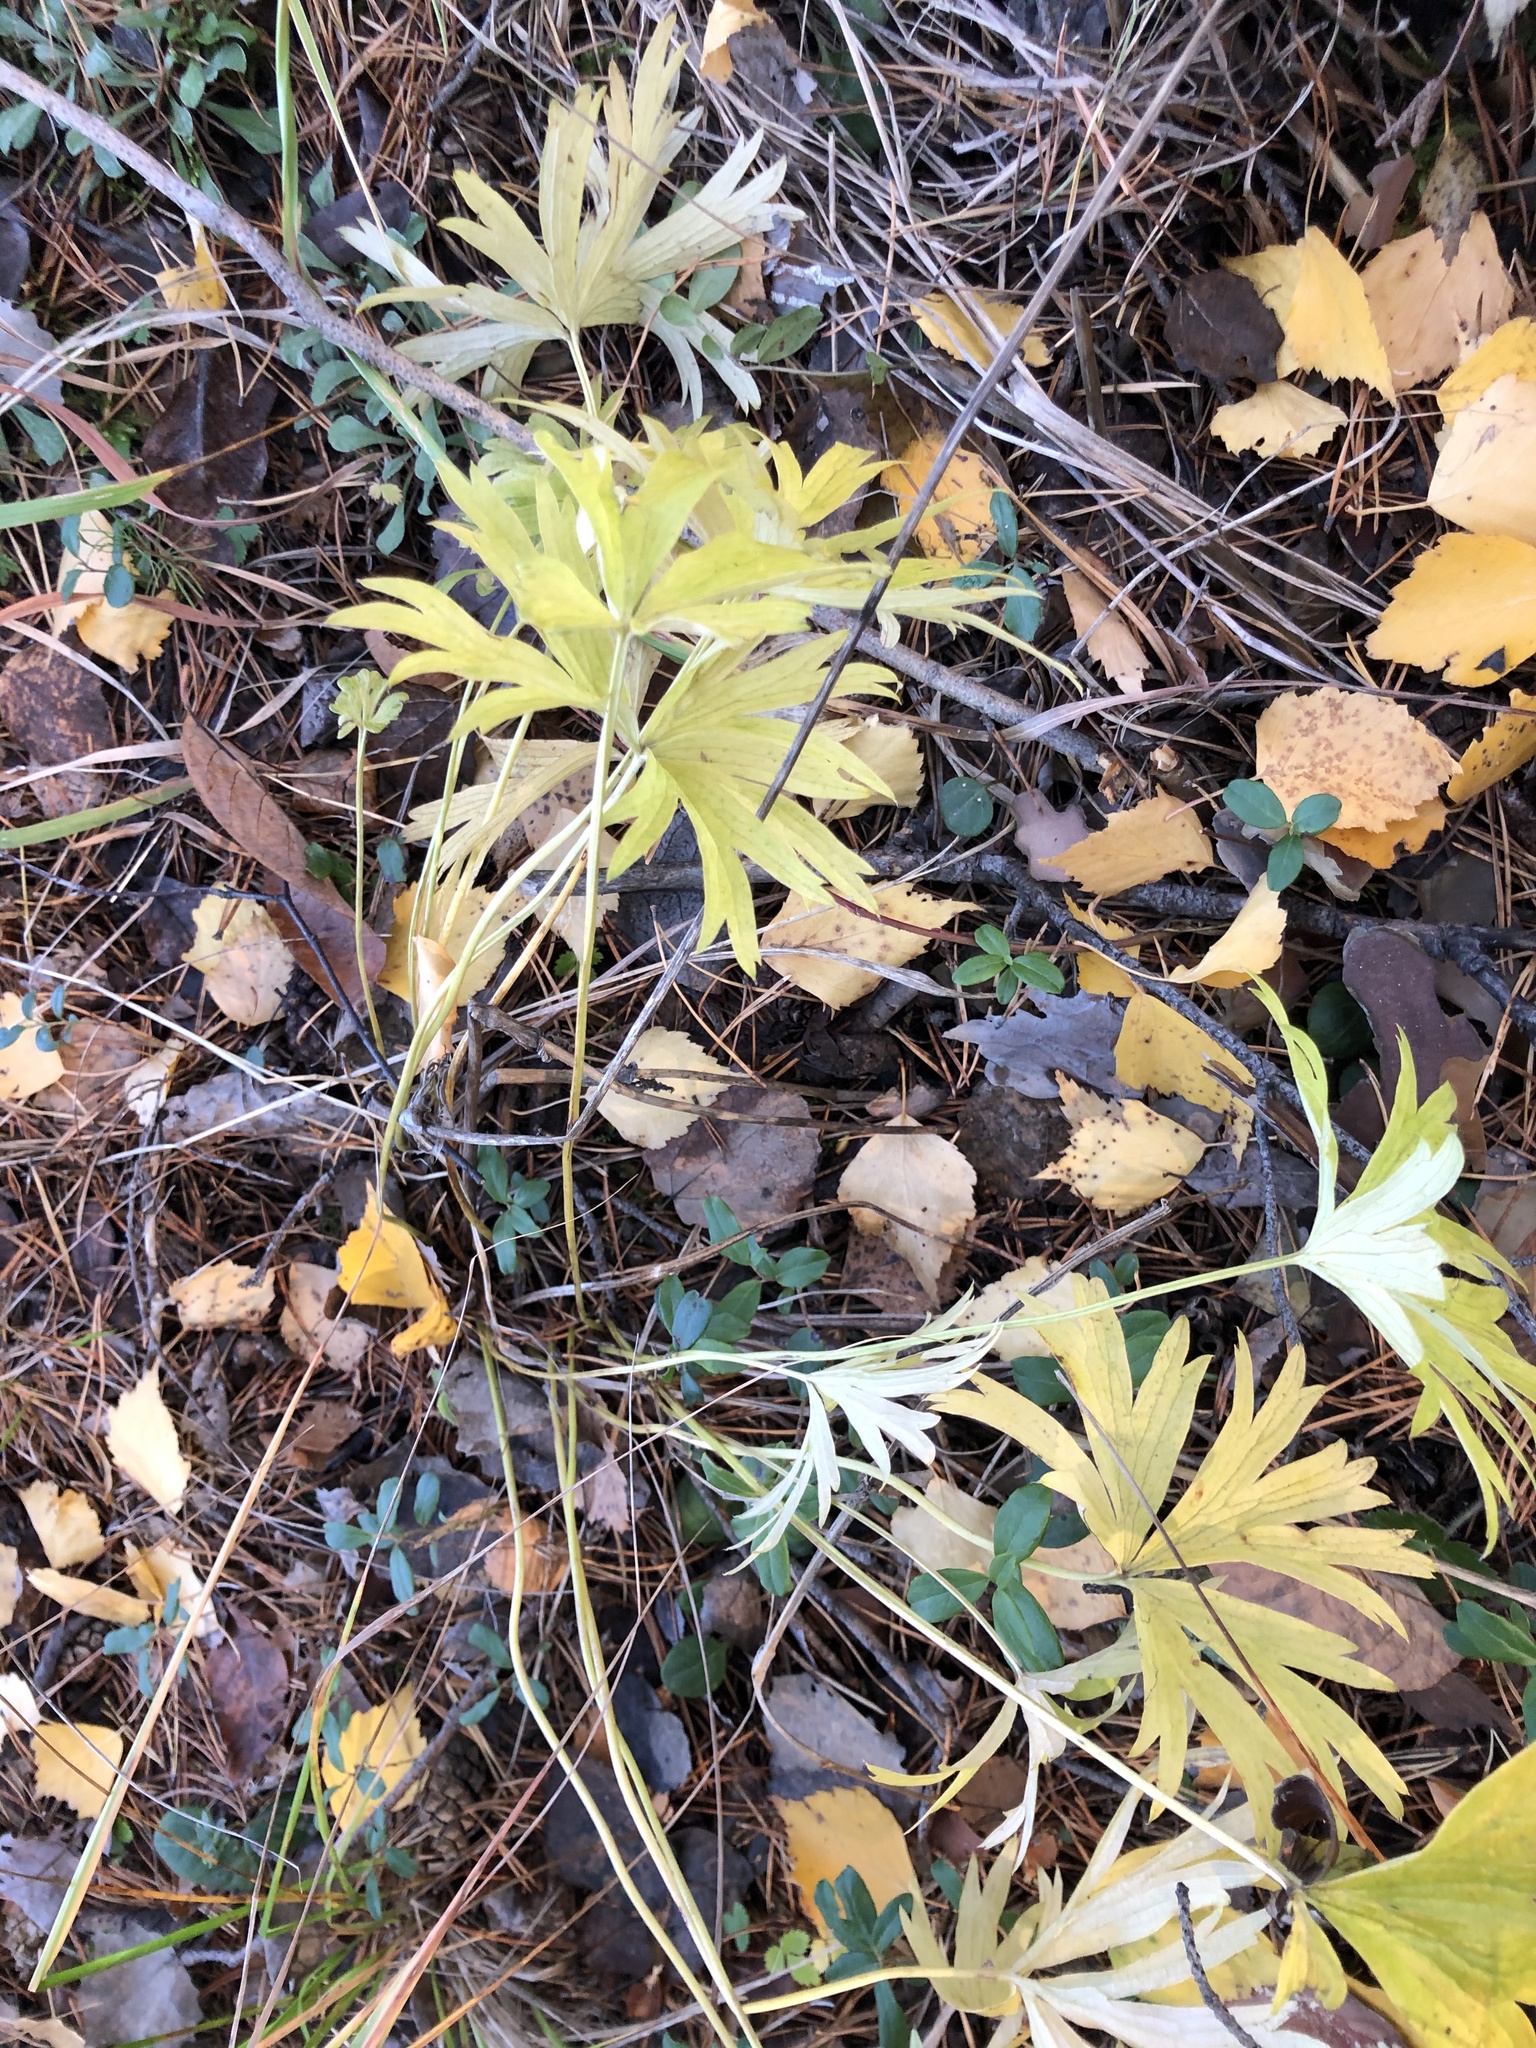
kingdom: Plantae
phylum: Tracheophyta
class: Magnoliopsida
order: Ranunculales
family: Ranunculaceae
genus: Pulsatilla
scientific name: Pulsatilla patens
